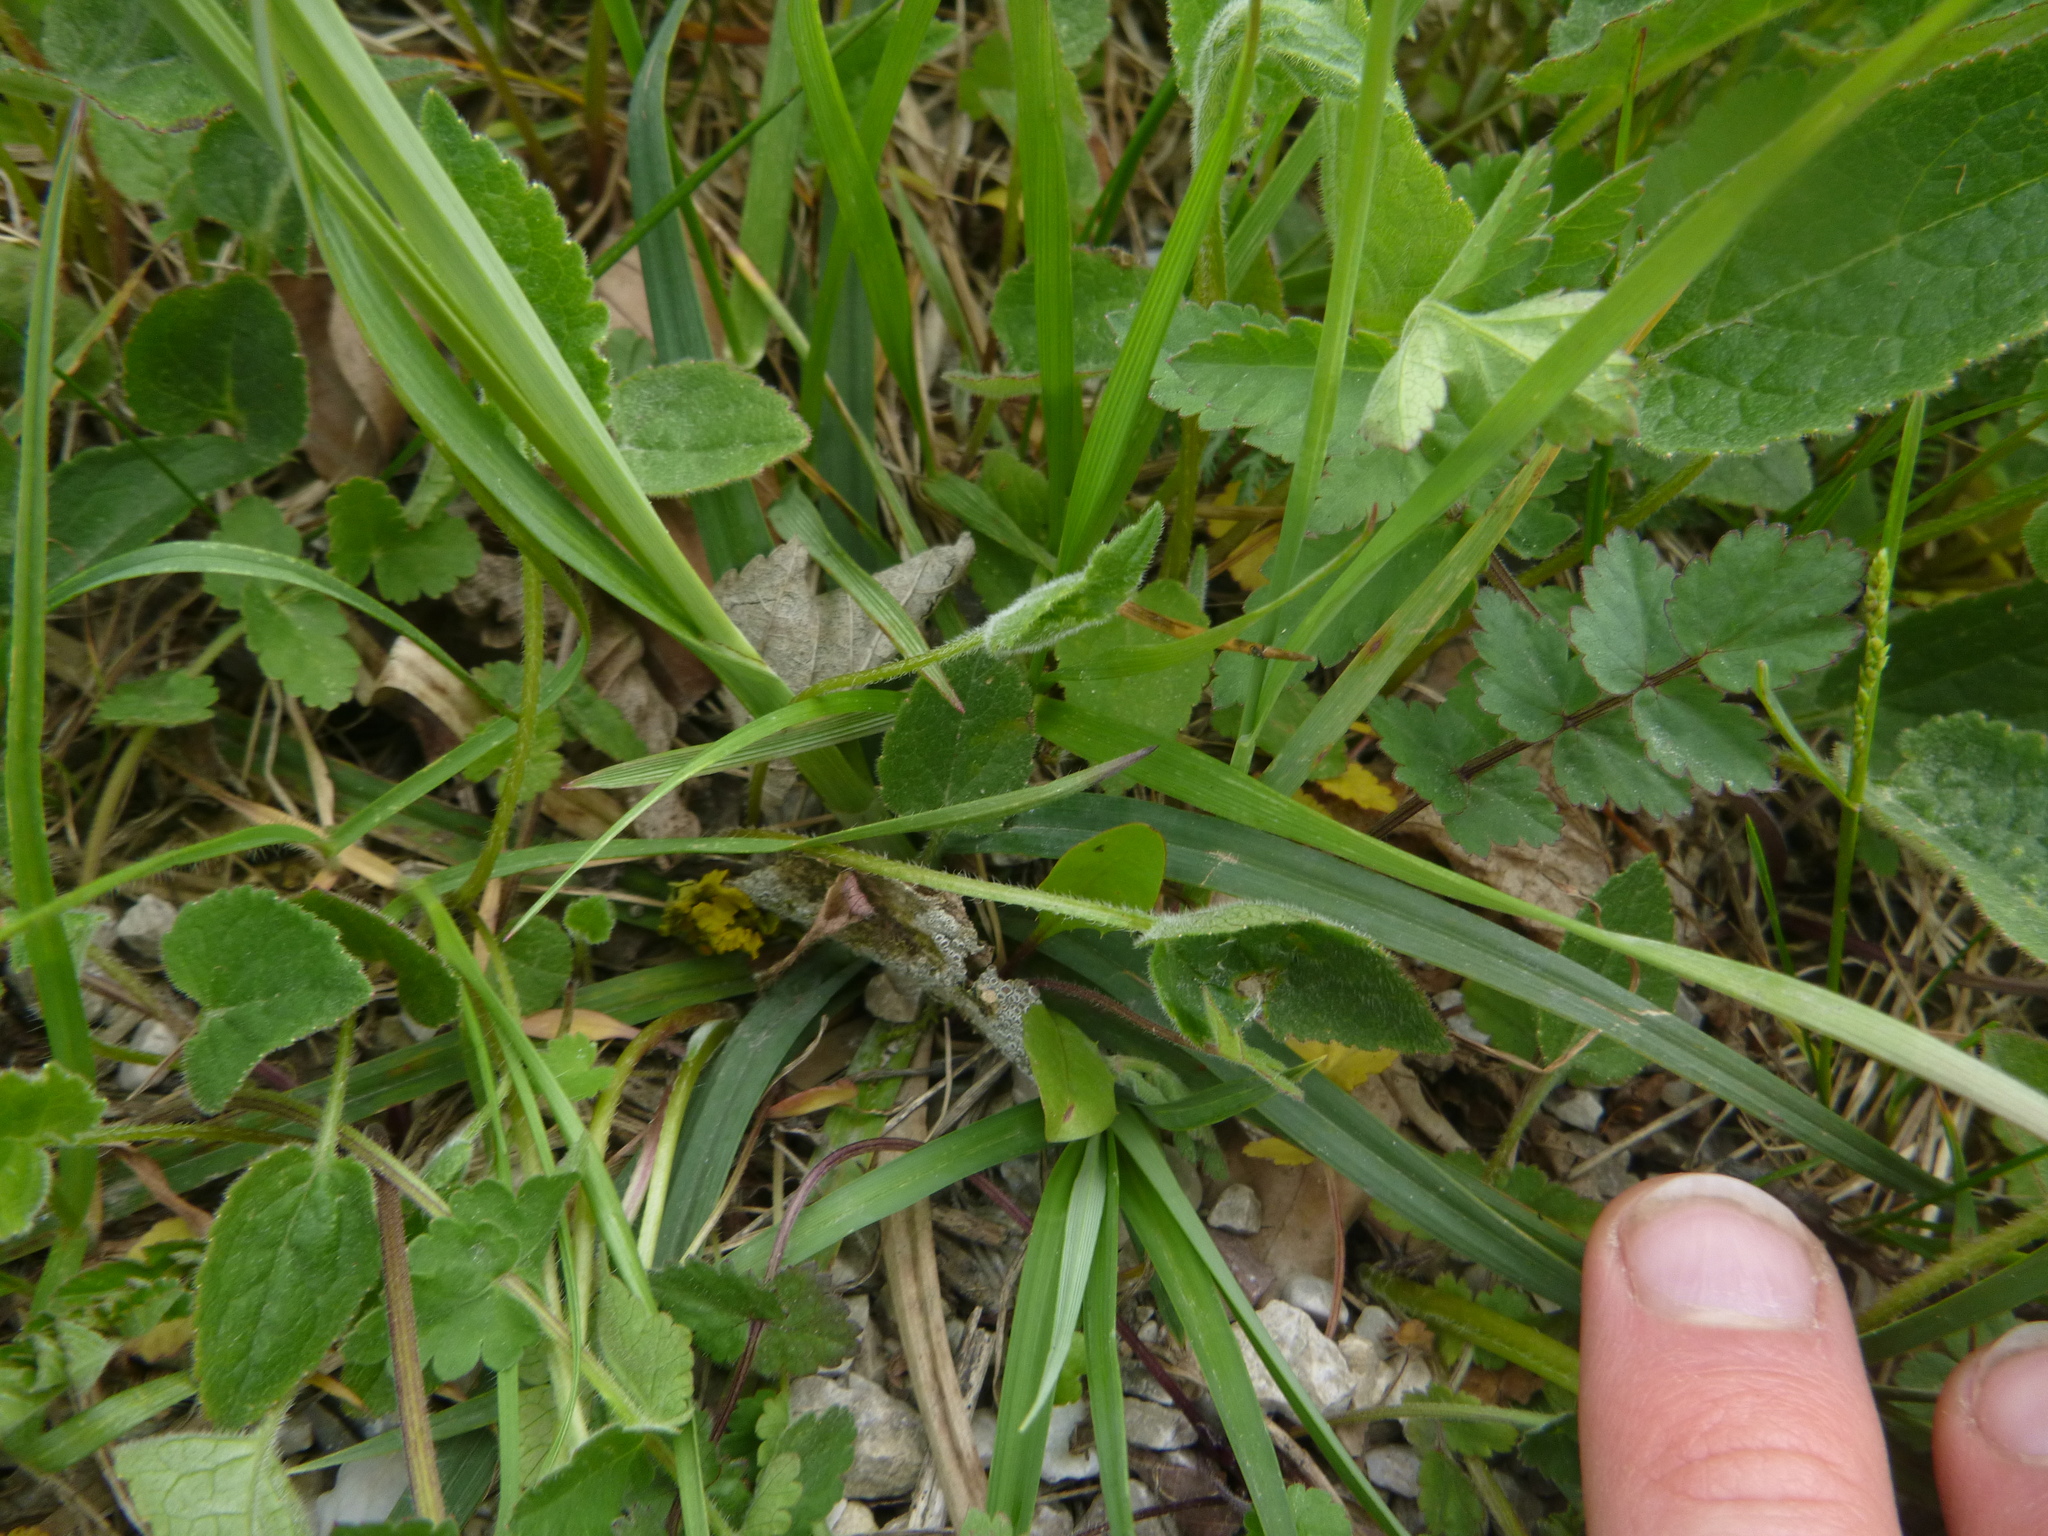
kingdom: Plantae
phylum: Tracheophyta
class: Liliopsida
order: Poales
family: Cyperaceae
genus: Carex
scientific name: Carex flacca
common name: Glaucous sedge
